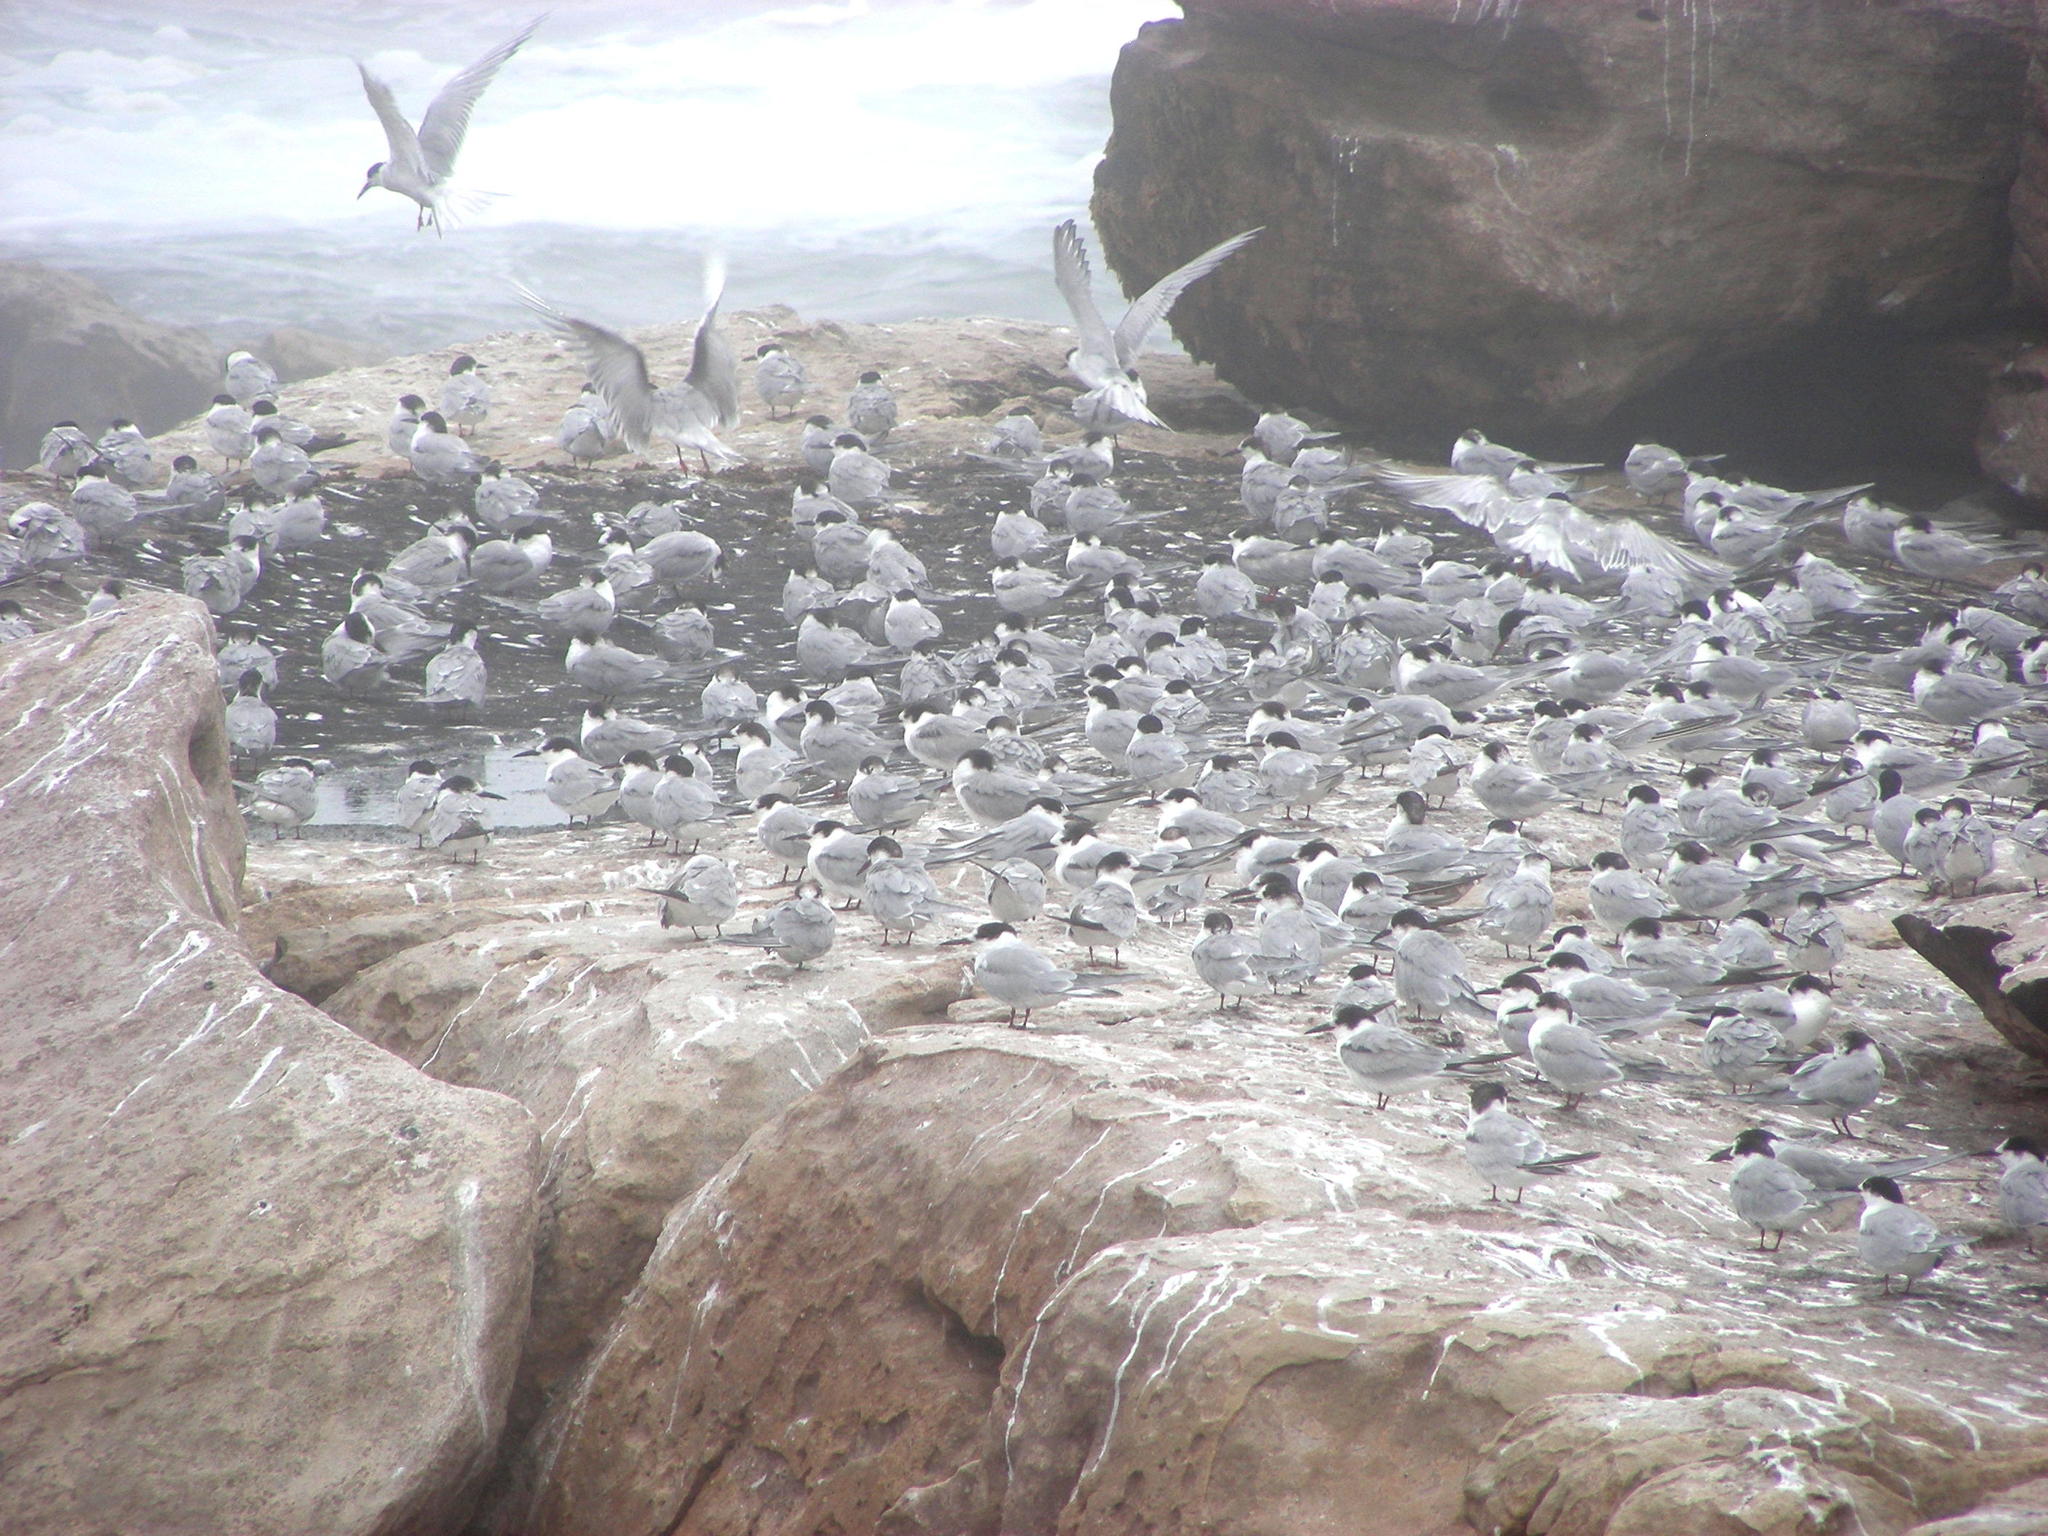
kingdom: Animalia
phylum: Chordata
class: Aves
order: Charadriiformes
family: Laridae
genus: Sterna
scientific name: Sterna hirundo
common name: Common tern
